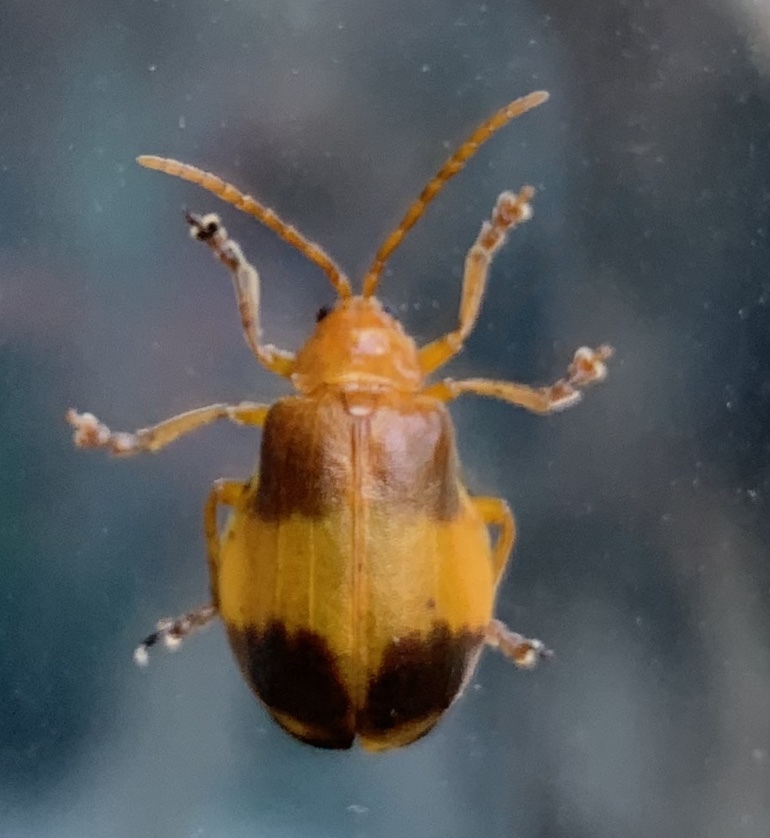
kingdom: Animalia
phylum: Arthropoda
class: Insecta
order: Coleoptera
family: Chrysomelidae
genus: Monocesta
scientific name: Monocesta coryli
